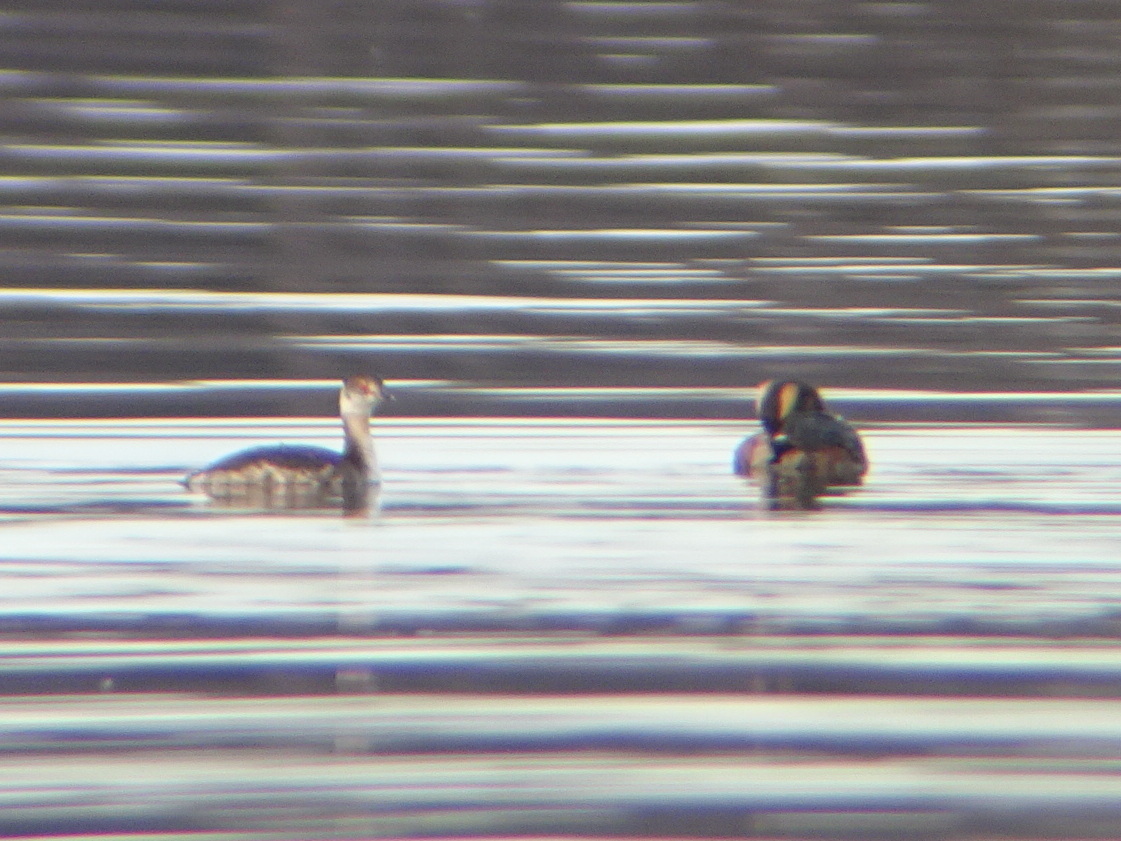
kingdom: Animalia
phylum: Chordata
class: Aves
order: Podicipediformes
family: Podicipedidae
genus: Podiceps
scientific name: Podiceps auritus
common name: Horned grebe
